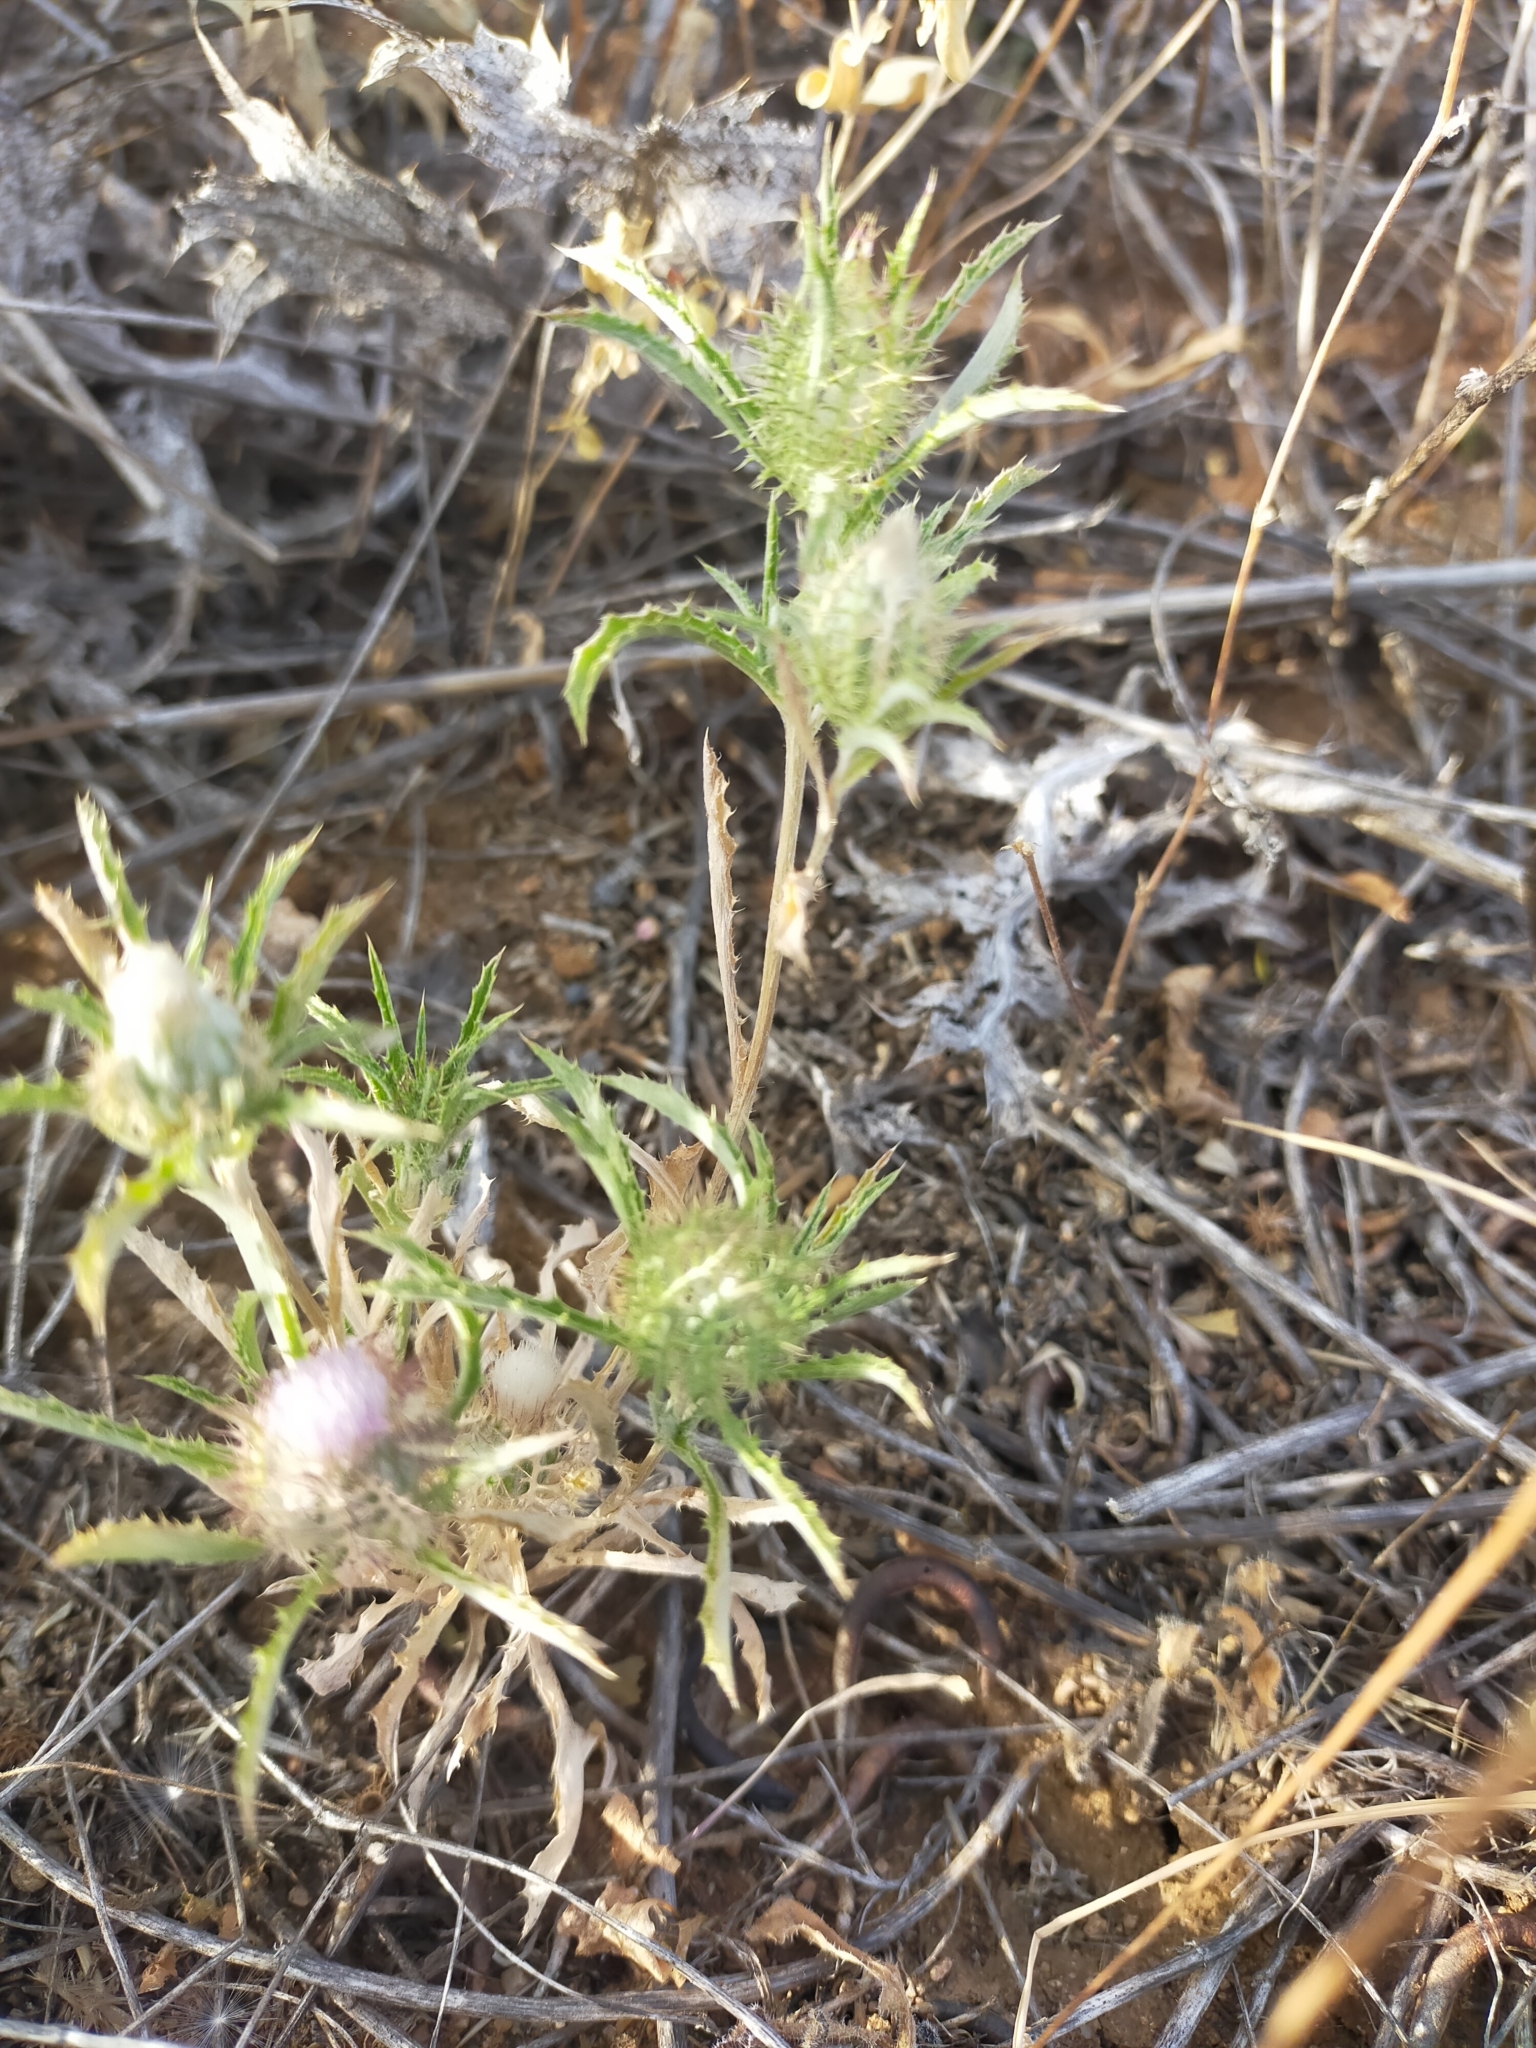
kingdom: Plantae
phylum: Tracheophyta
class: Magnoliopsida
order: Asterales
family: Asteraceae
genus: Atractylis
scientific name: Atractylis cancellata
